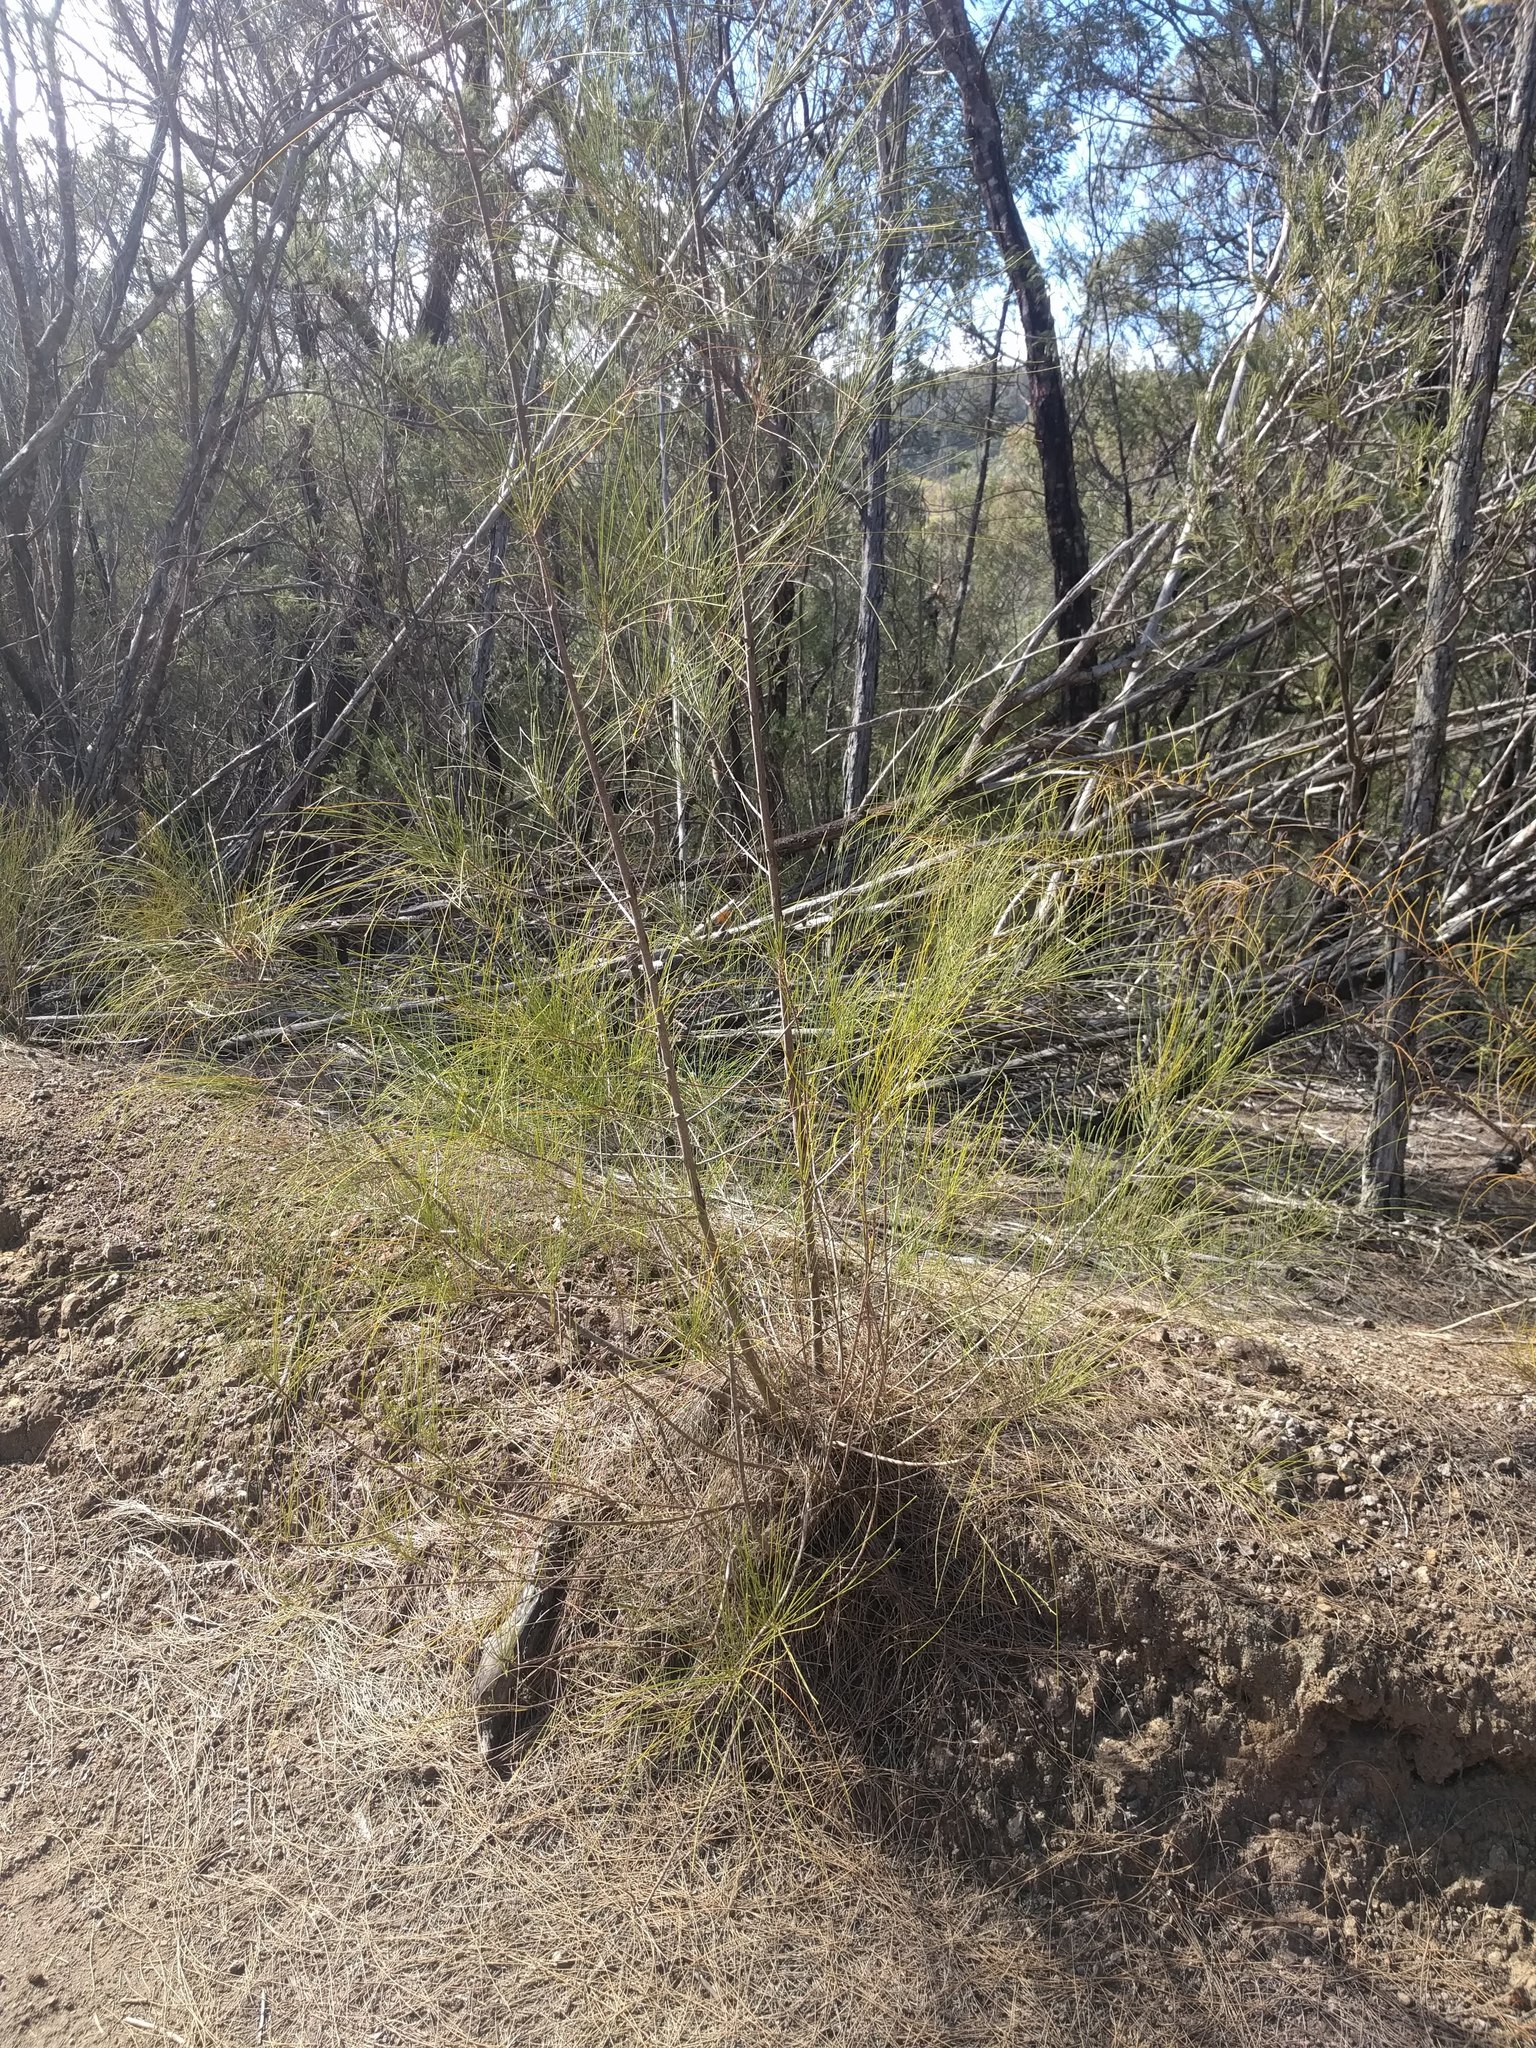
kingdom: Plantae
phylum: Tracheophyta
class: Magnoliopsida
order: Fagales
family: Casuarinaceae
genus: Casuarina
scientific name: Casuarina equisetifolia
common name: Beach sheoak
